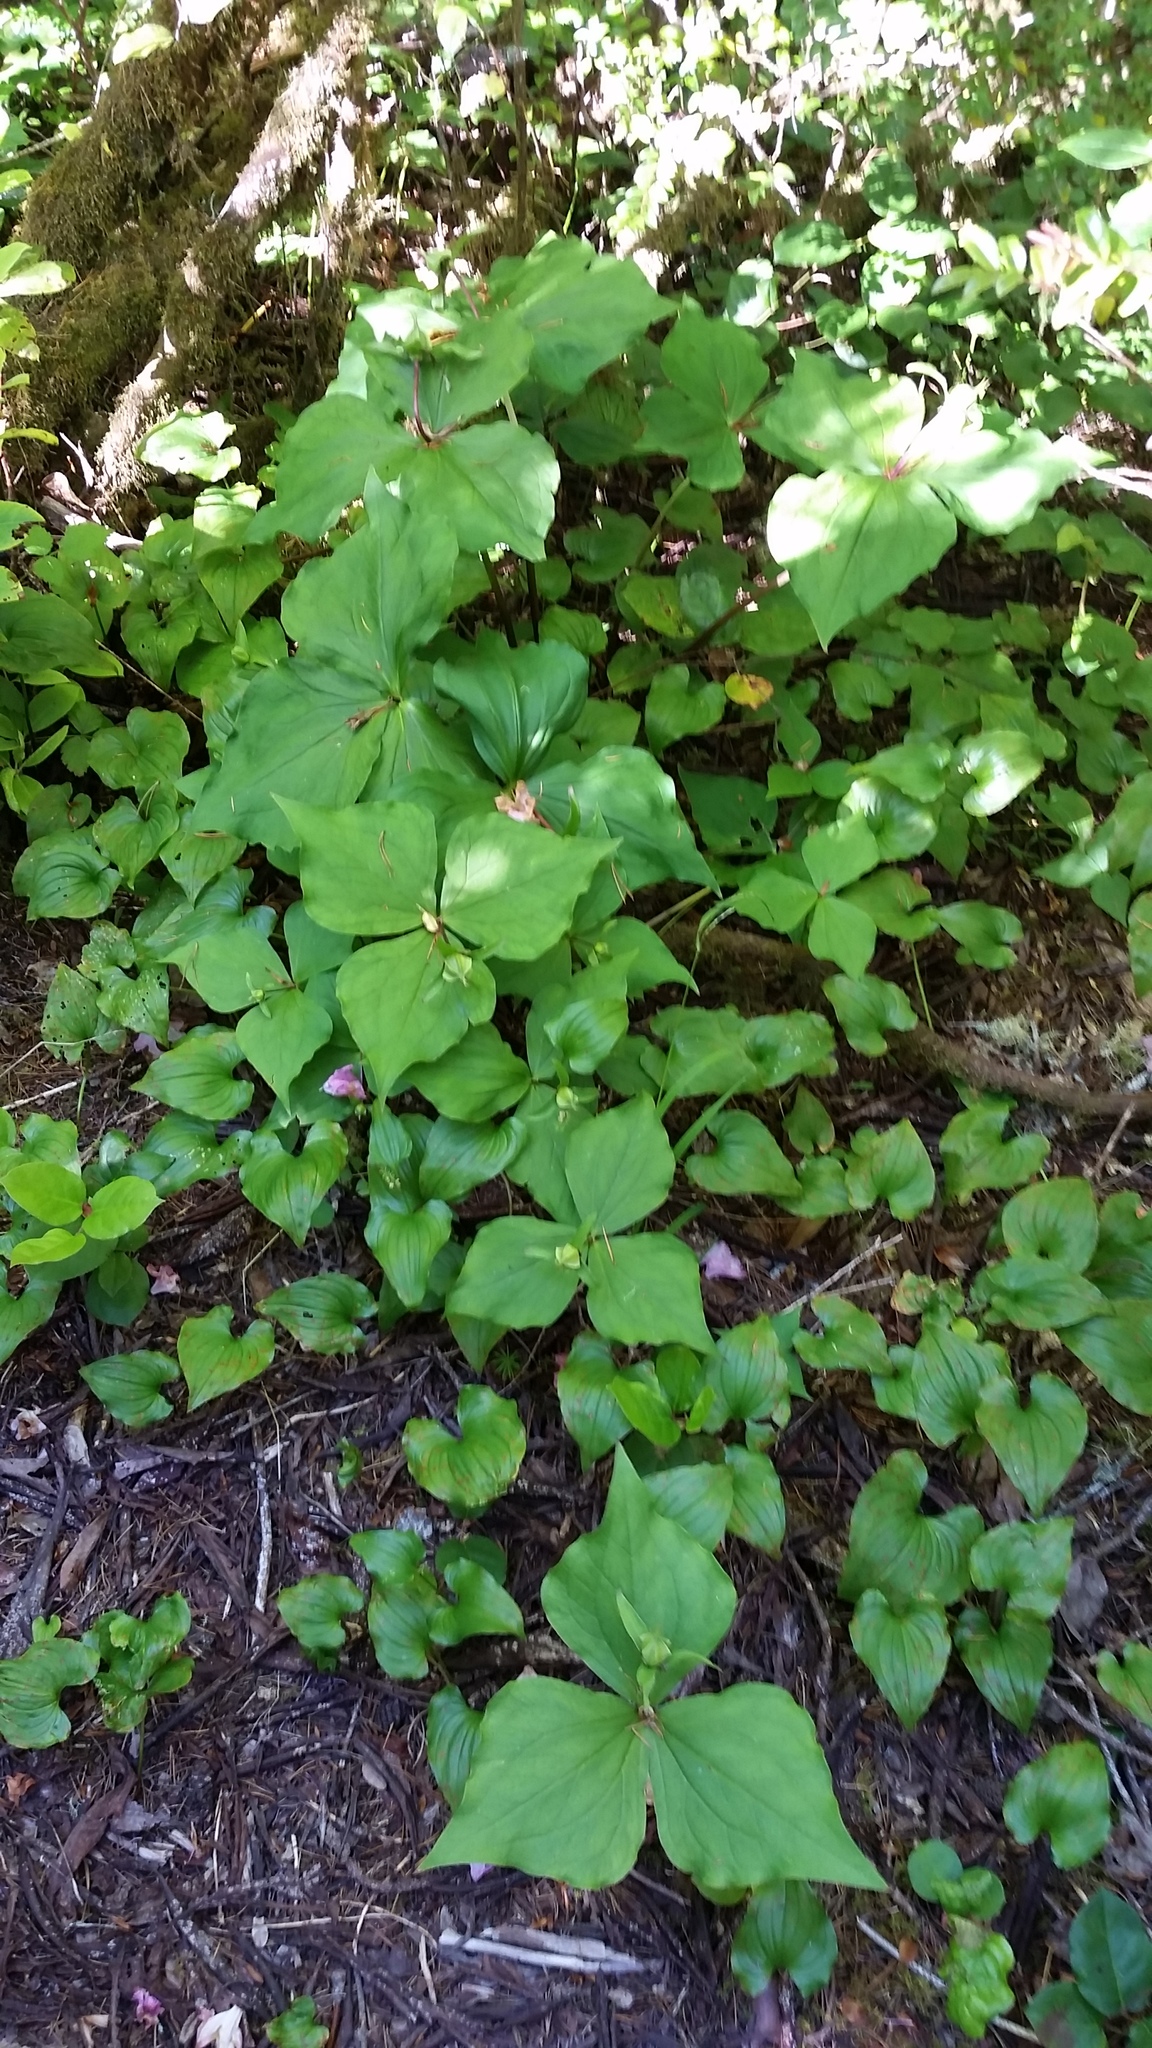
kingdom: Plantae
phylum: Tracheophyta
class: Liliopsida
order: Liliales
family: Melanthiaceae
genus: Trillium
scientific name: Trillium ovatum
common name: Pacific trillium
